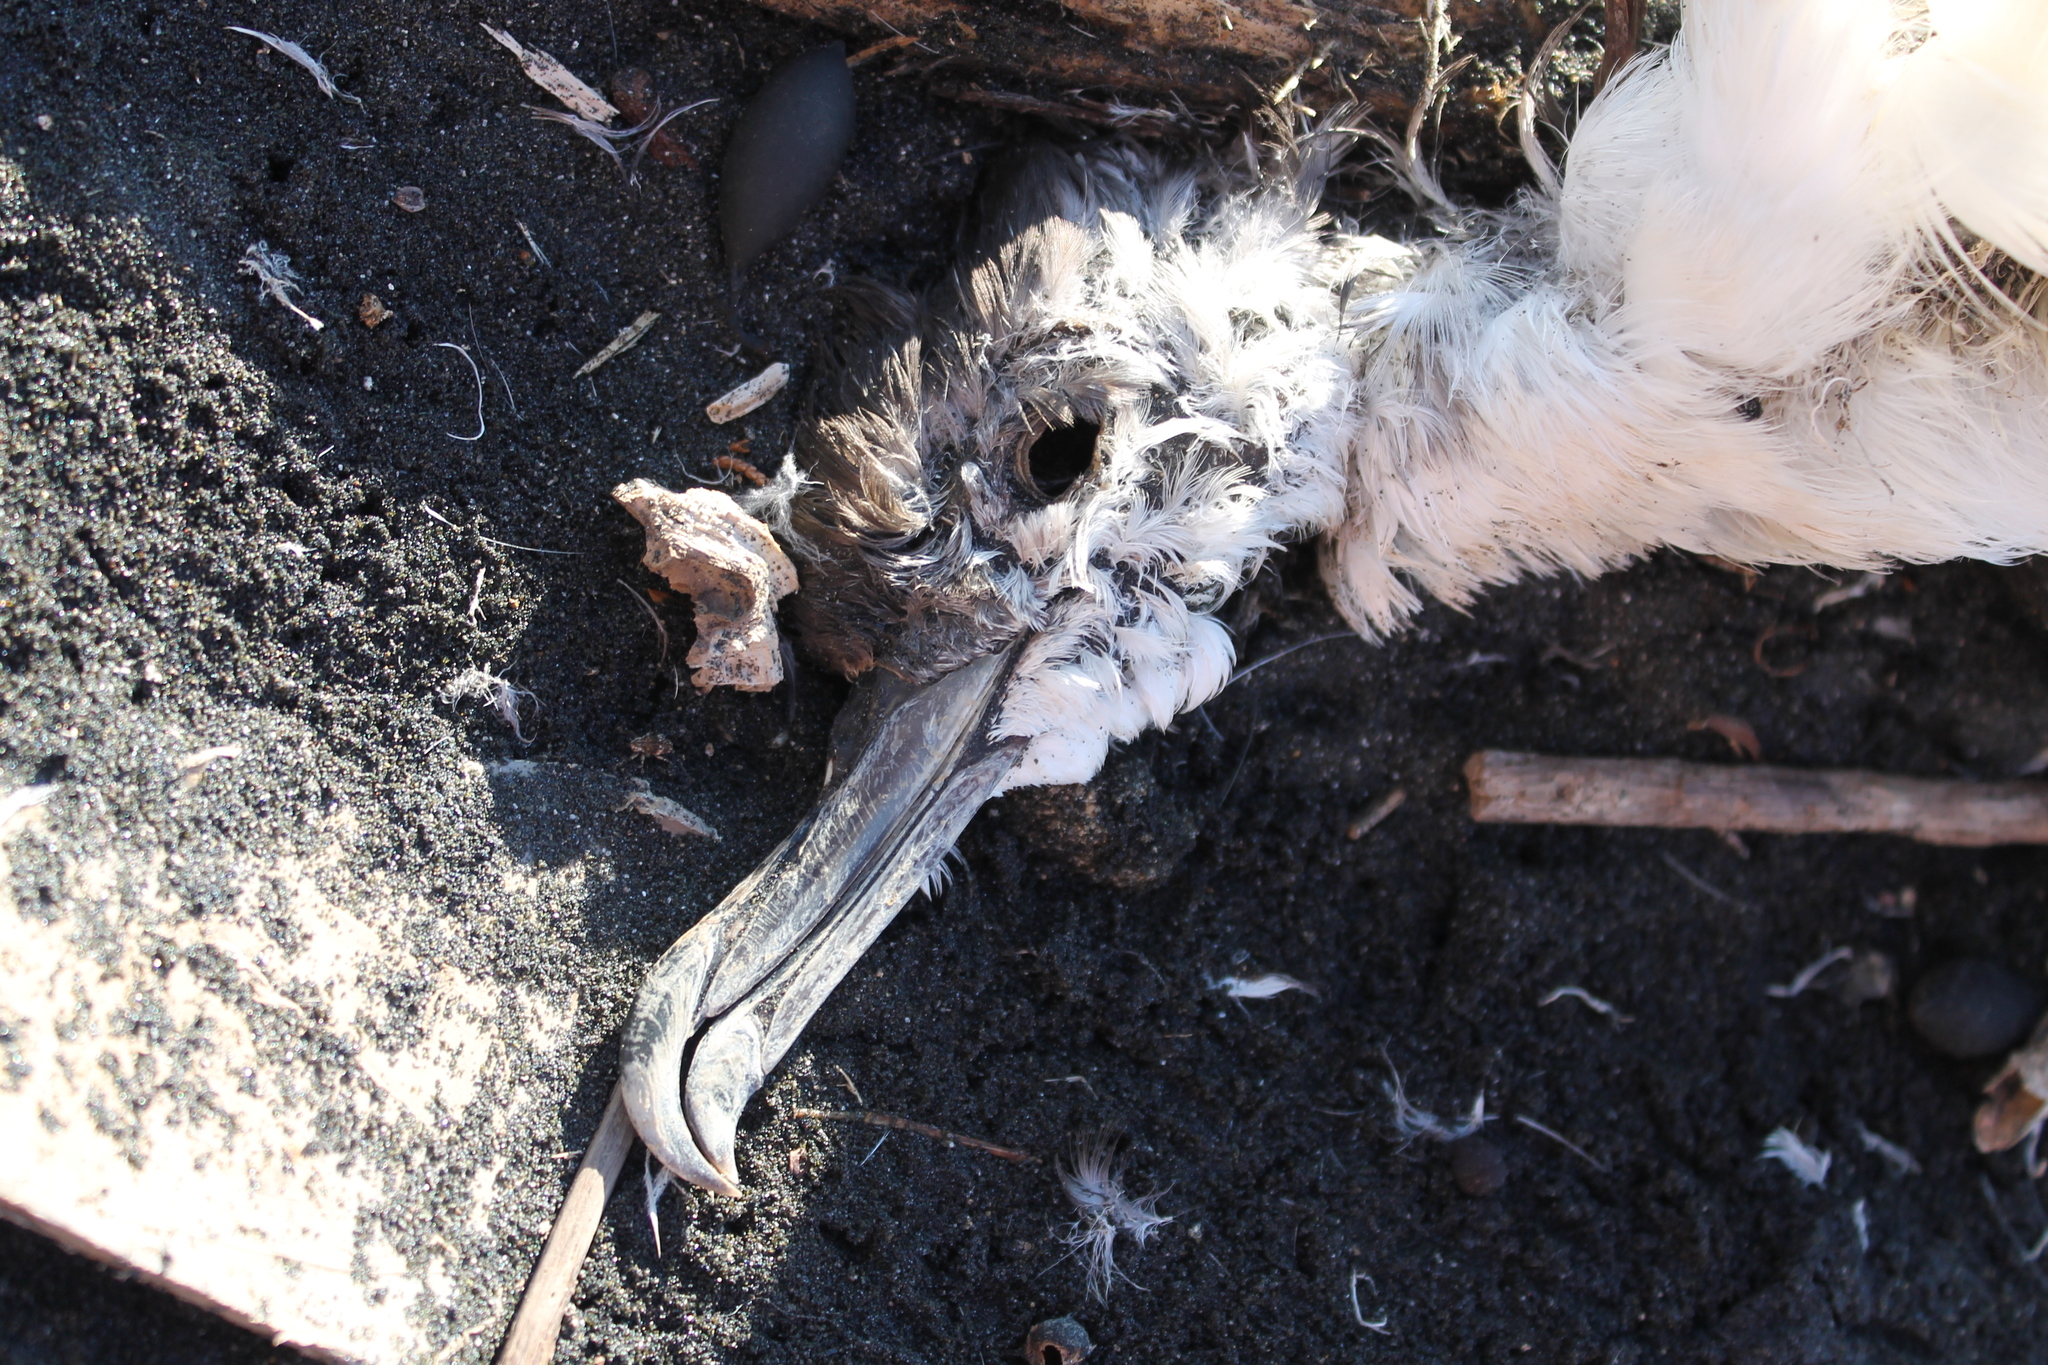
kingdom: Animalia
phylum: Chordata
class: Aves
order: Procellariiformes
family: Procellariidae
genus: Puffinus
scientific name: Puffinus bulleri
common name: Buller's shearwater
